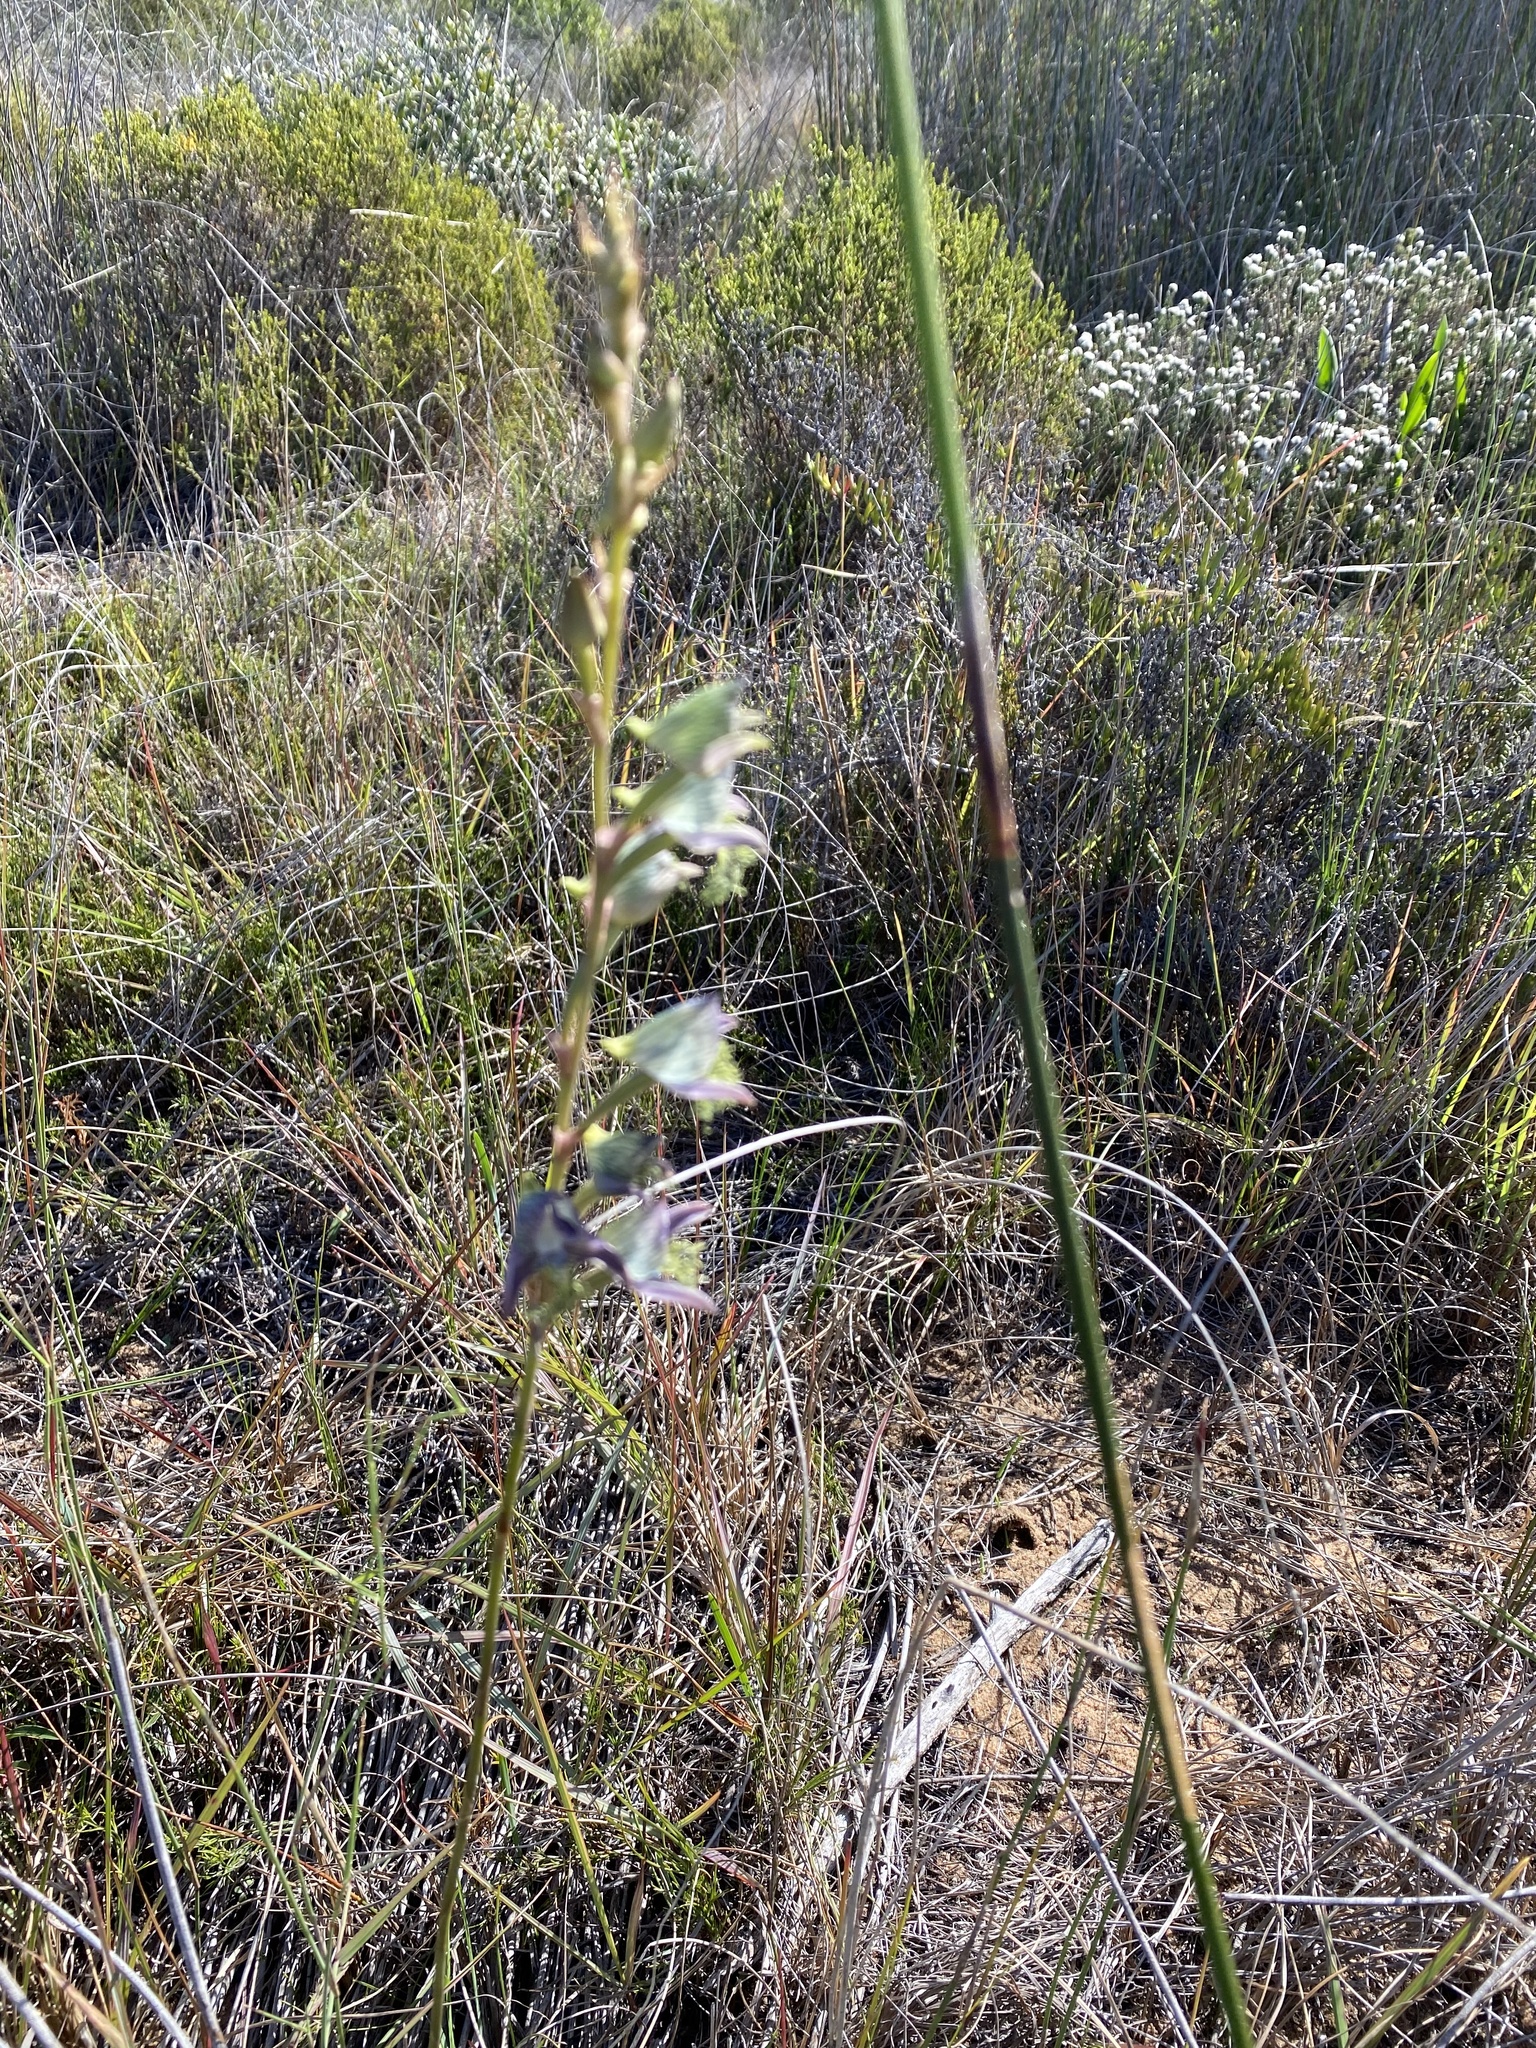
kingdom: Plantae
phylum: Tracheophyta
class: Liliopsida
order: Asparagales
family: Orchidaceae
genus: Disa
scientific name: Disa lugens
